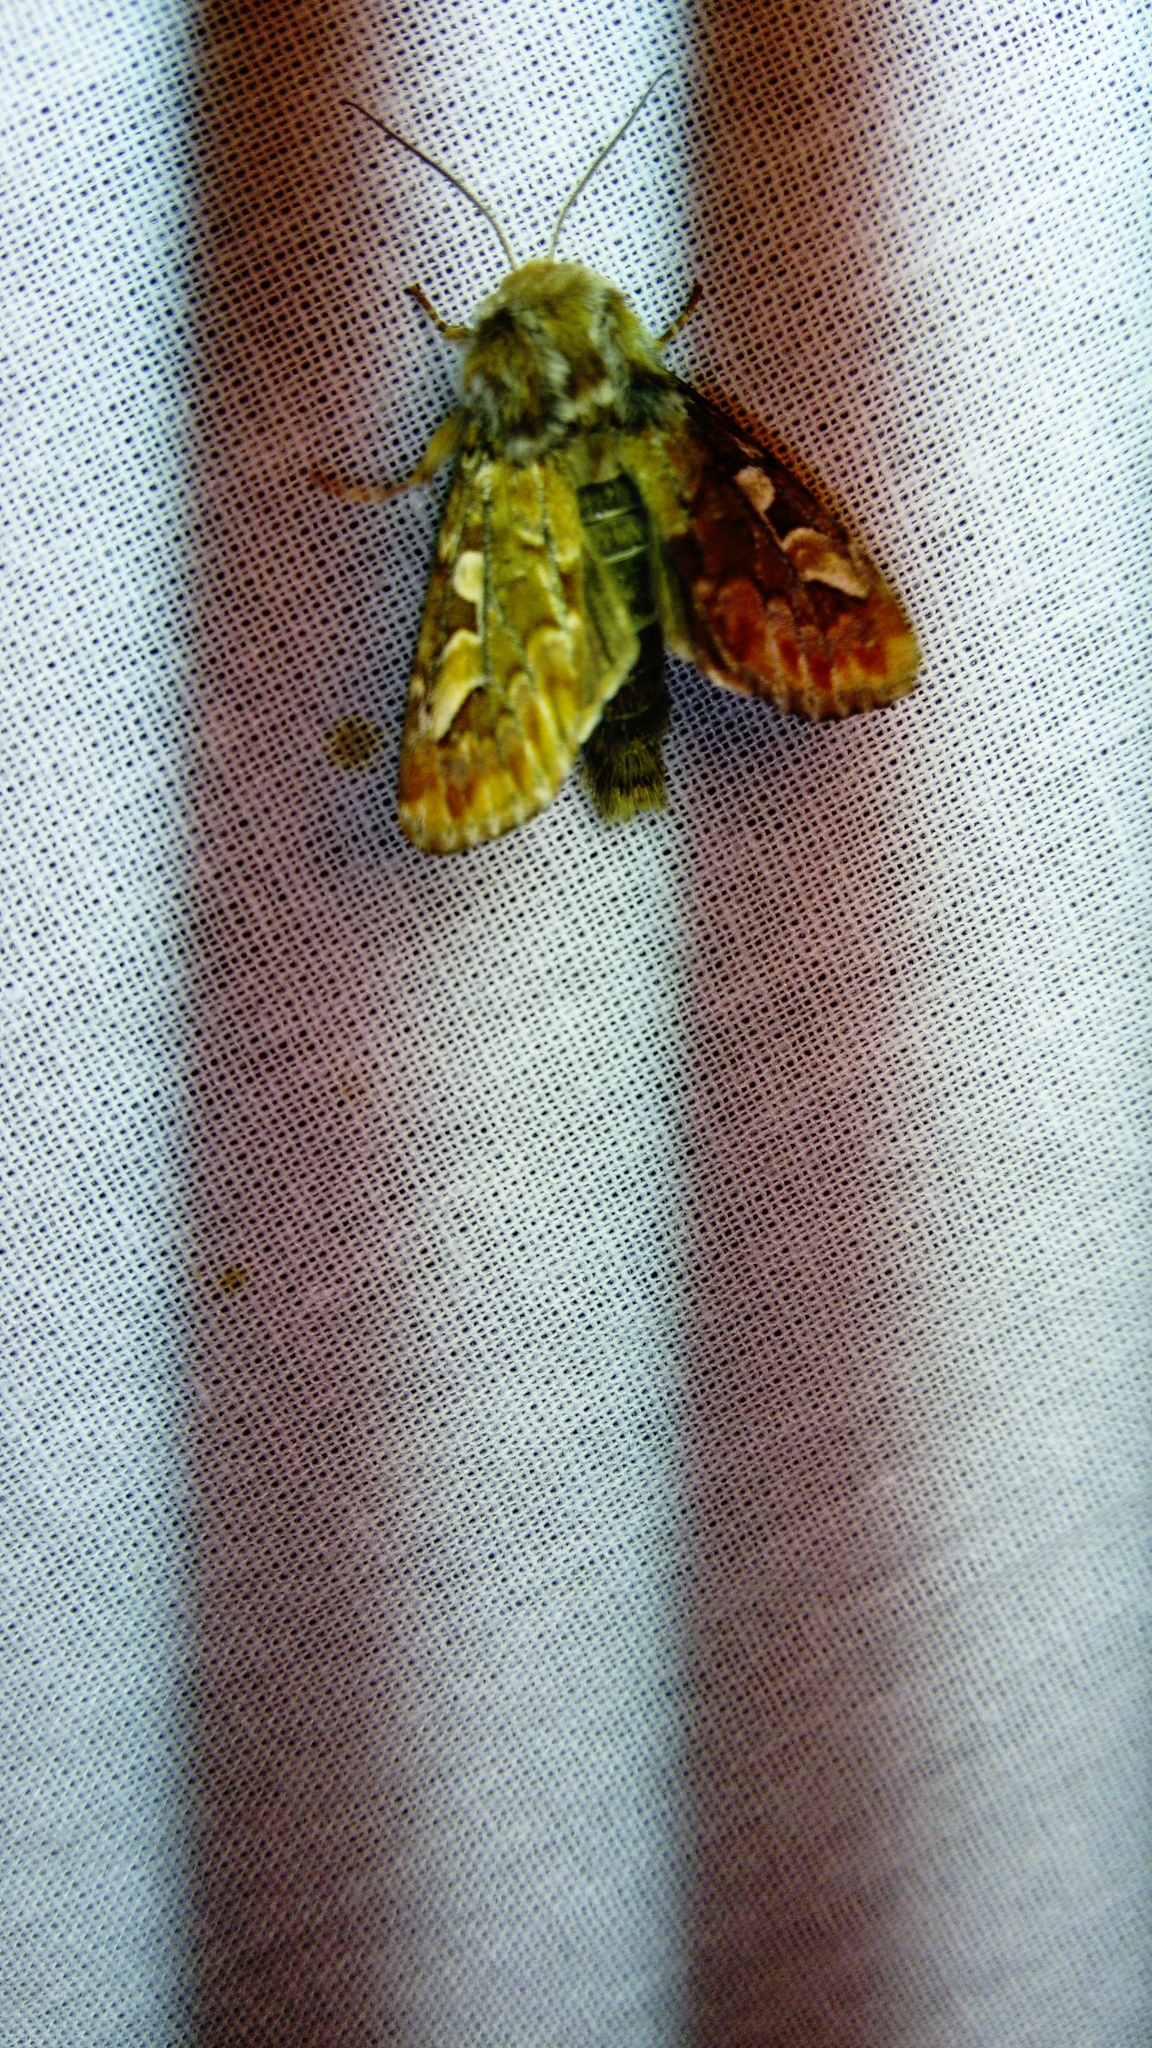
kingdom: Animalia
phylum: Arthropoda
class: Insecta
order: Lepidoptera
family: Noctuidae
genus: Panolis
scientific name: Panolis flammea
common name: Pine beauty
